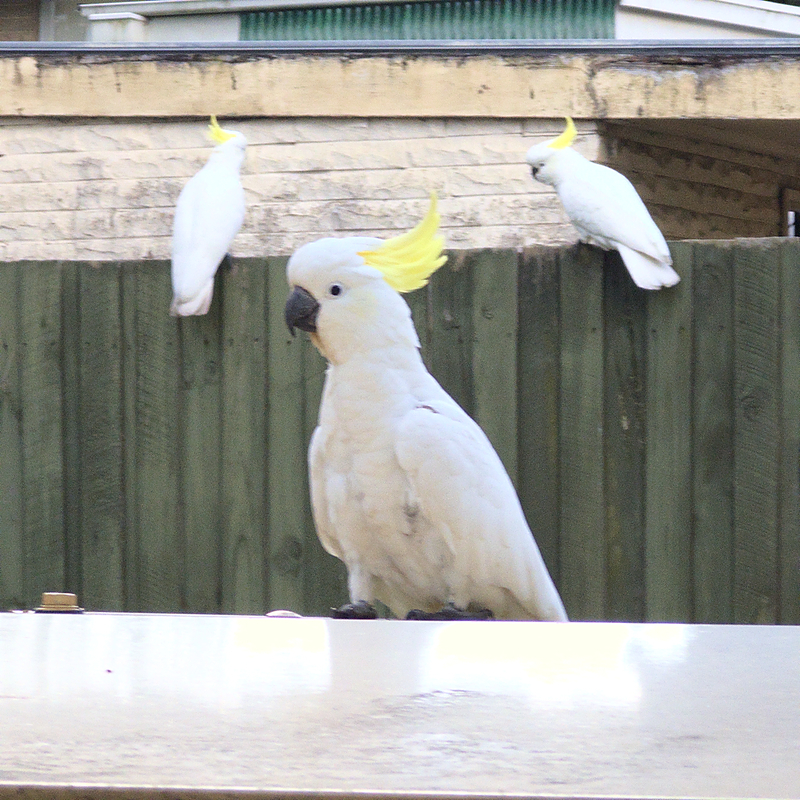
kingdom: Animalia
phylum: Chordata
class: Aves
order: Psittaciformes
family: Psittacidae
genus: Cacatua
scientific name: Cacatua galerita
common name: Sulphur-crested cockatoo
